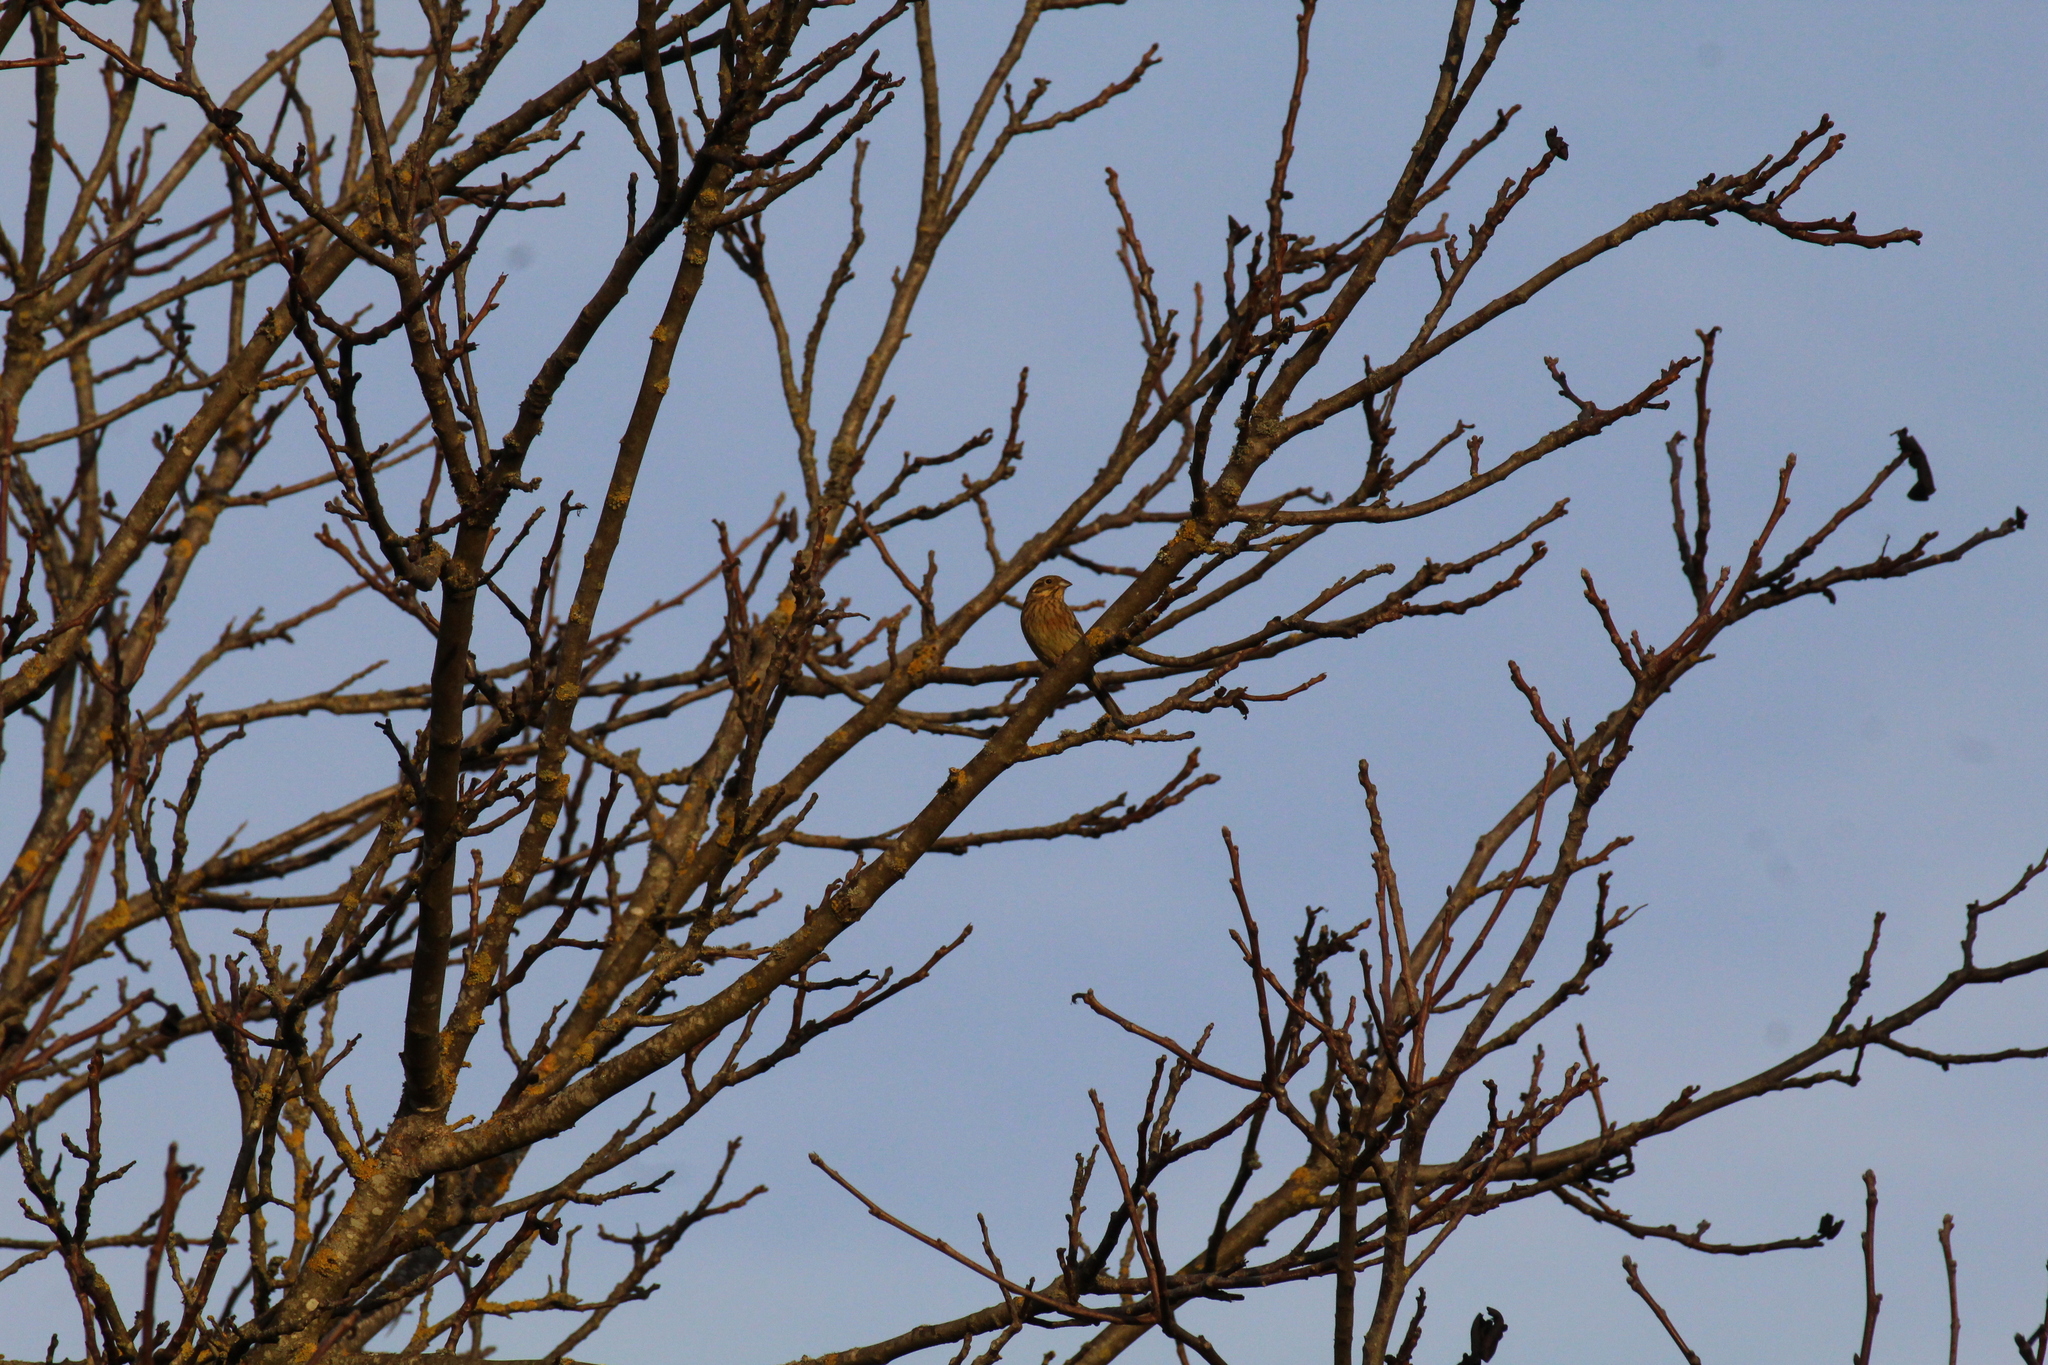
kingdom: Animalia
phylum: Chordata
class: Aves
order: Passeriformes
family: Emberizidae
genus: Emberiza
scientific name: Emberiza cirlus
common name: Cirl bunting
